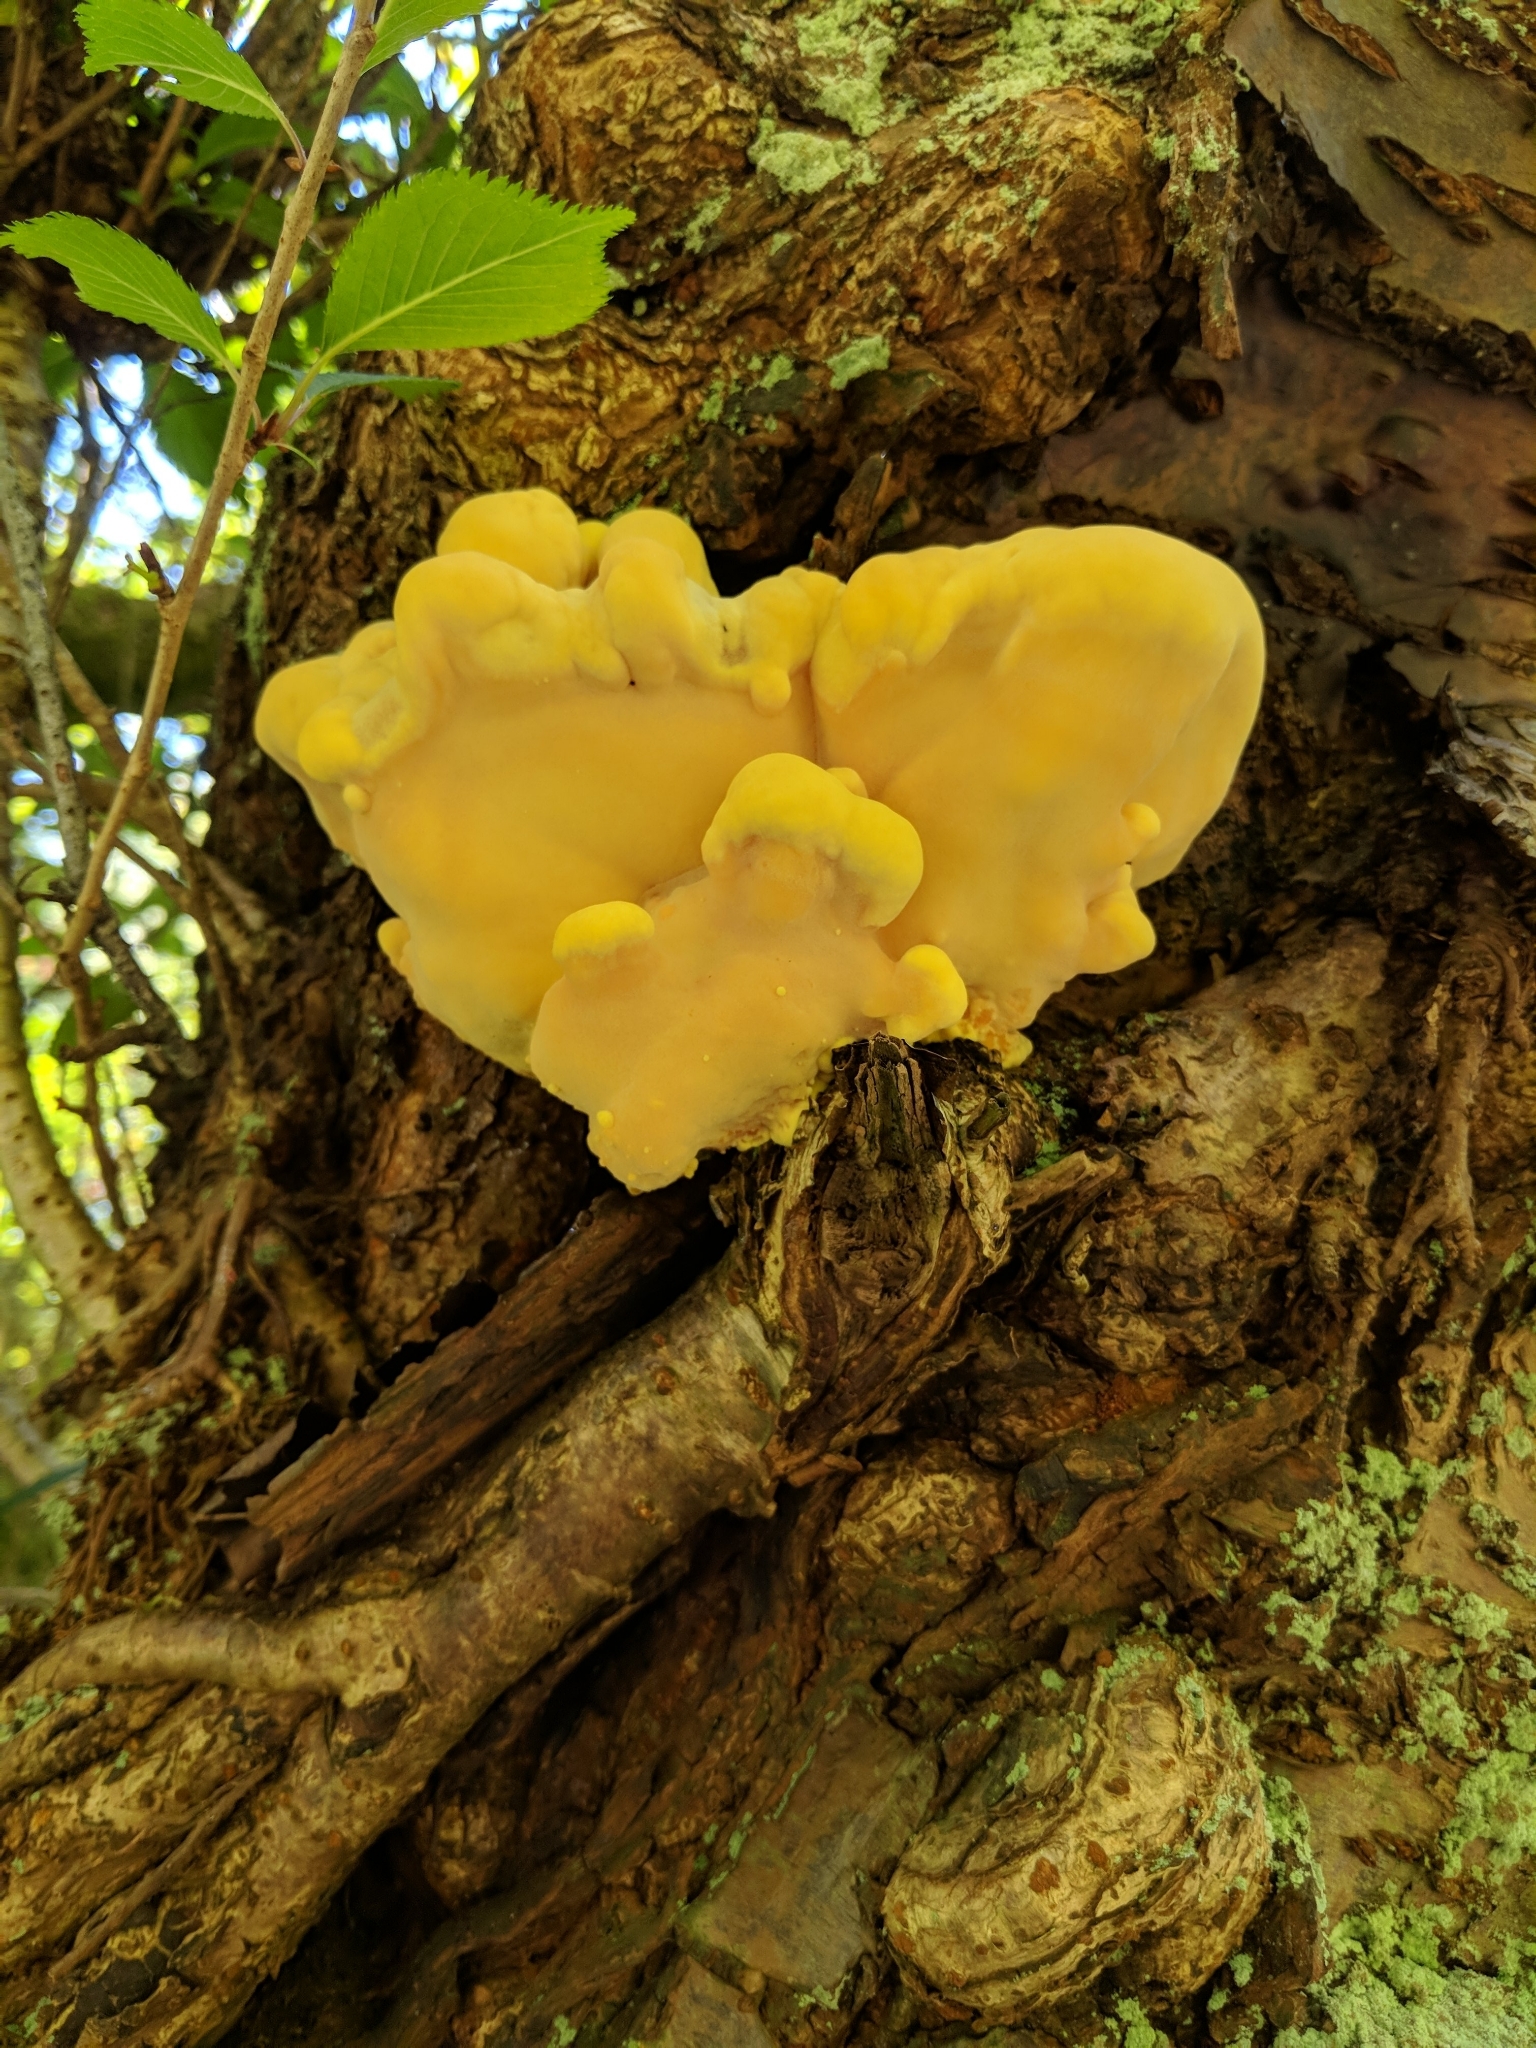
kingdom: Fungi
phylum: Basidiomycota
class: Agaricomycetes
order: Polyporales
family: Laetiporaceae
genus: Laetiporus
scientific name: Laetiporus sulphureus
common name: Chicken of the woods
